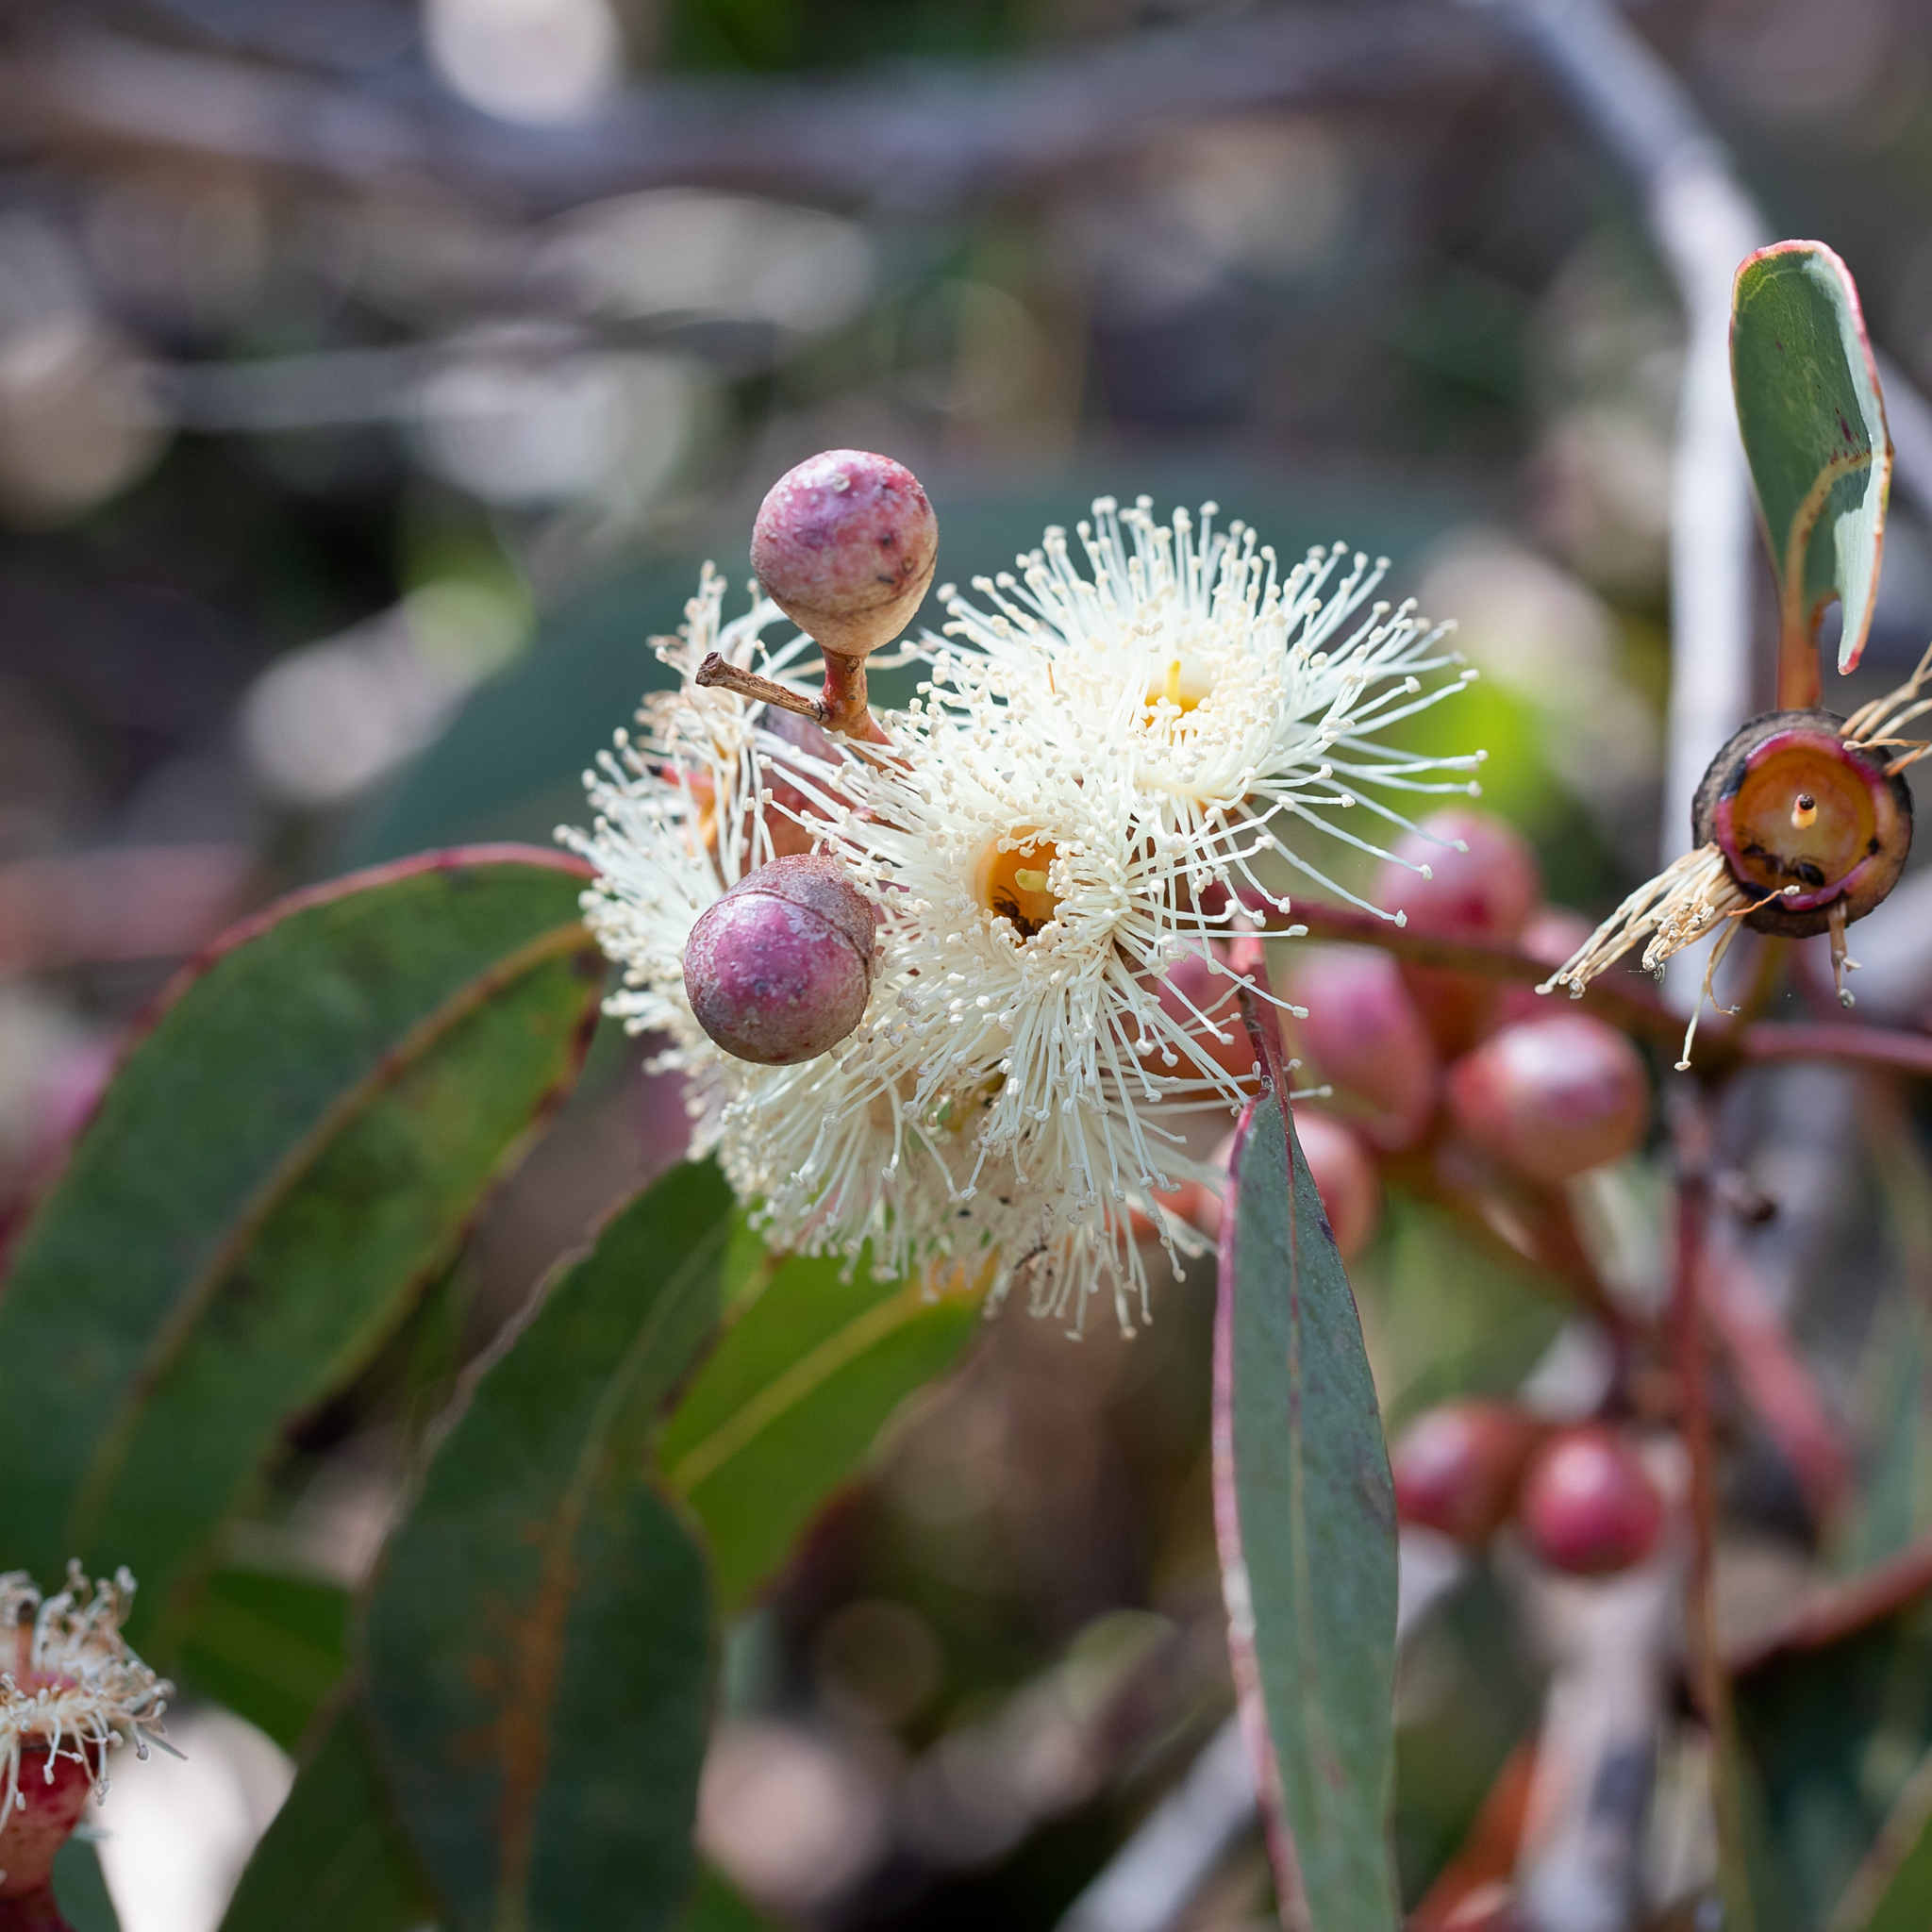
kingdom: Plantae
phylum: Tracheophyta
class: Magnoliopsida
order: Myrtales
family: Myrtaceae
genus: Eucalyptus
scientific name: Eucalyptus cosmophylla
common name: Bog-gum
